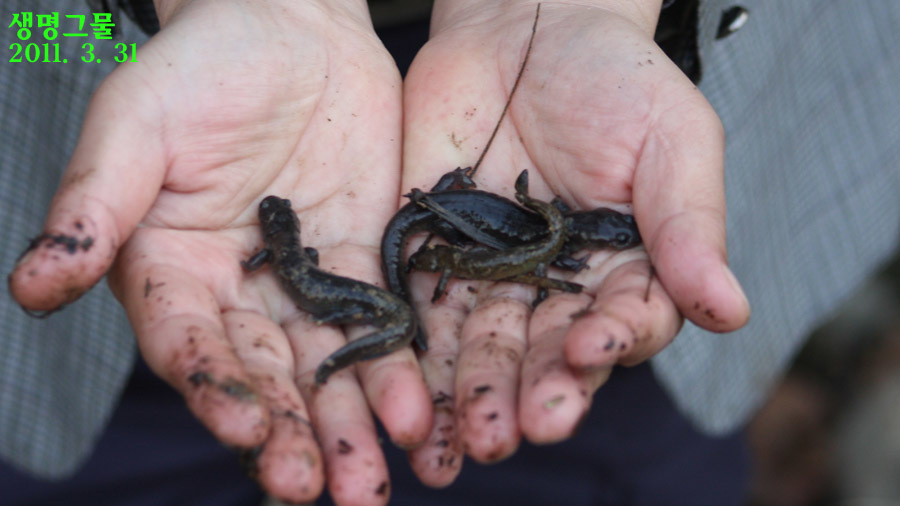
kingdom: Animalia
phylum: Chordata
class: Amphibia
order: Caudata
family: Hynobiidae
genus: Hynobius
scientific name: Hynobius yangi
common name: Yangi salamander
